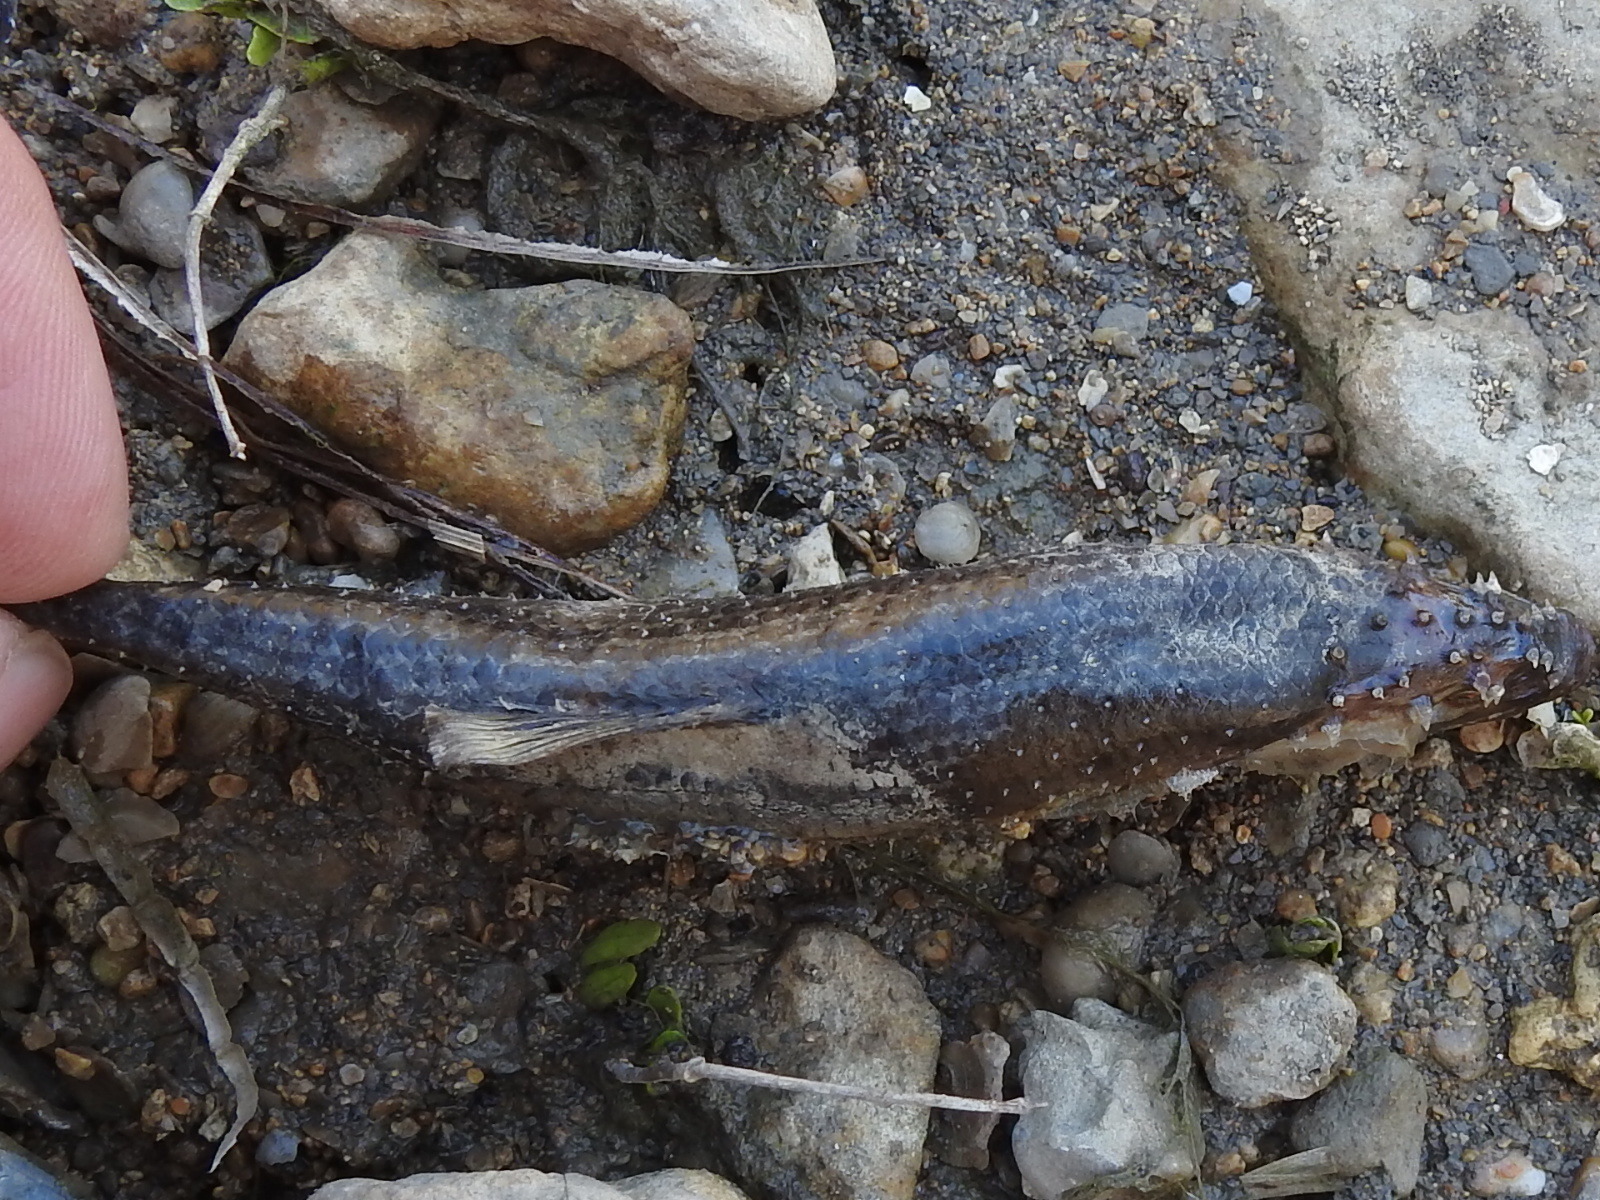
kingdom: Animalia
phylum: Chordata
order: Cypriniformes
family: Cyprinidae
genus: Campostoma
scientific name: Campostoma anomalum
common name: Central stoneroller
